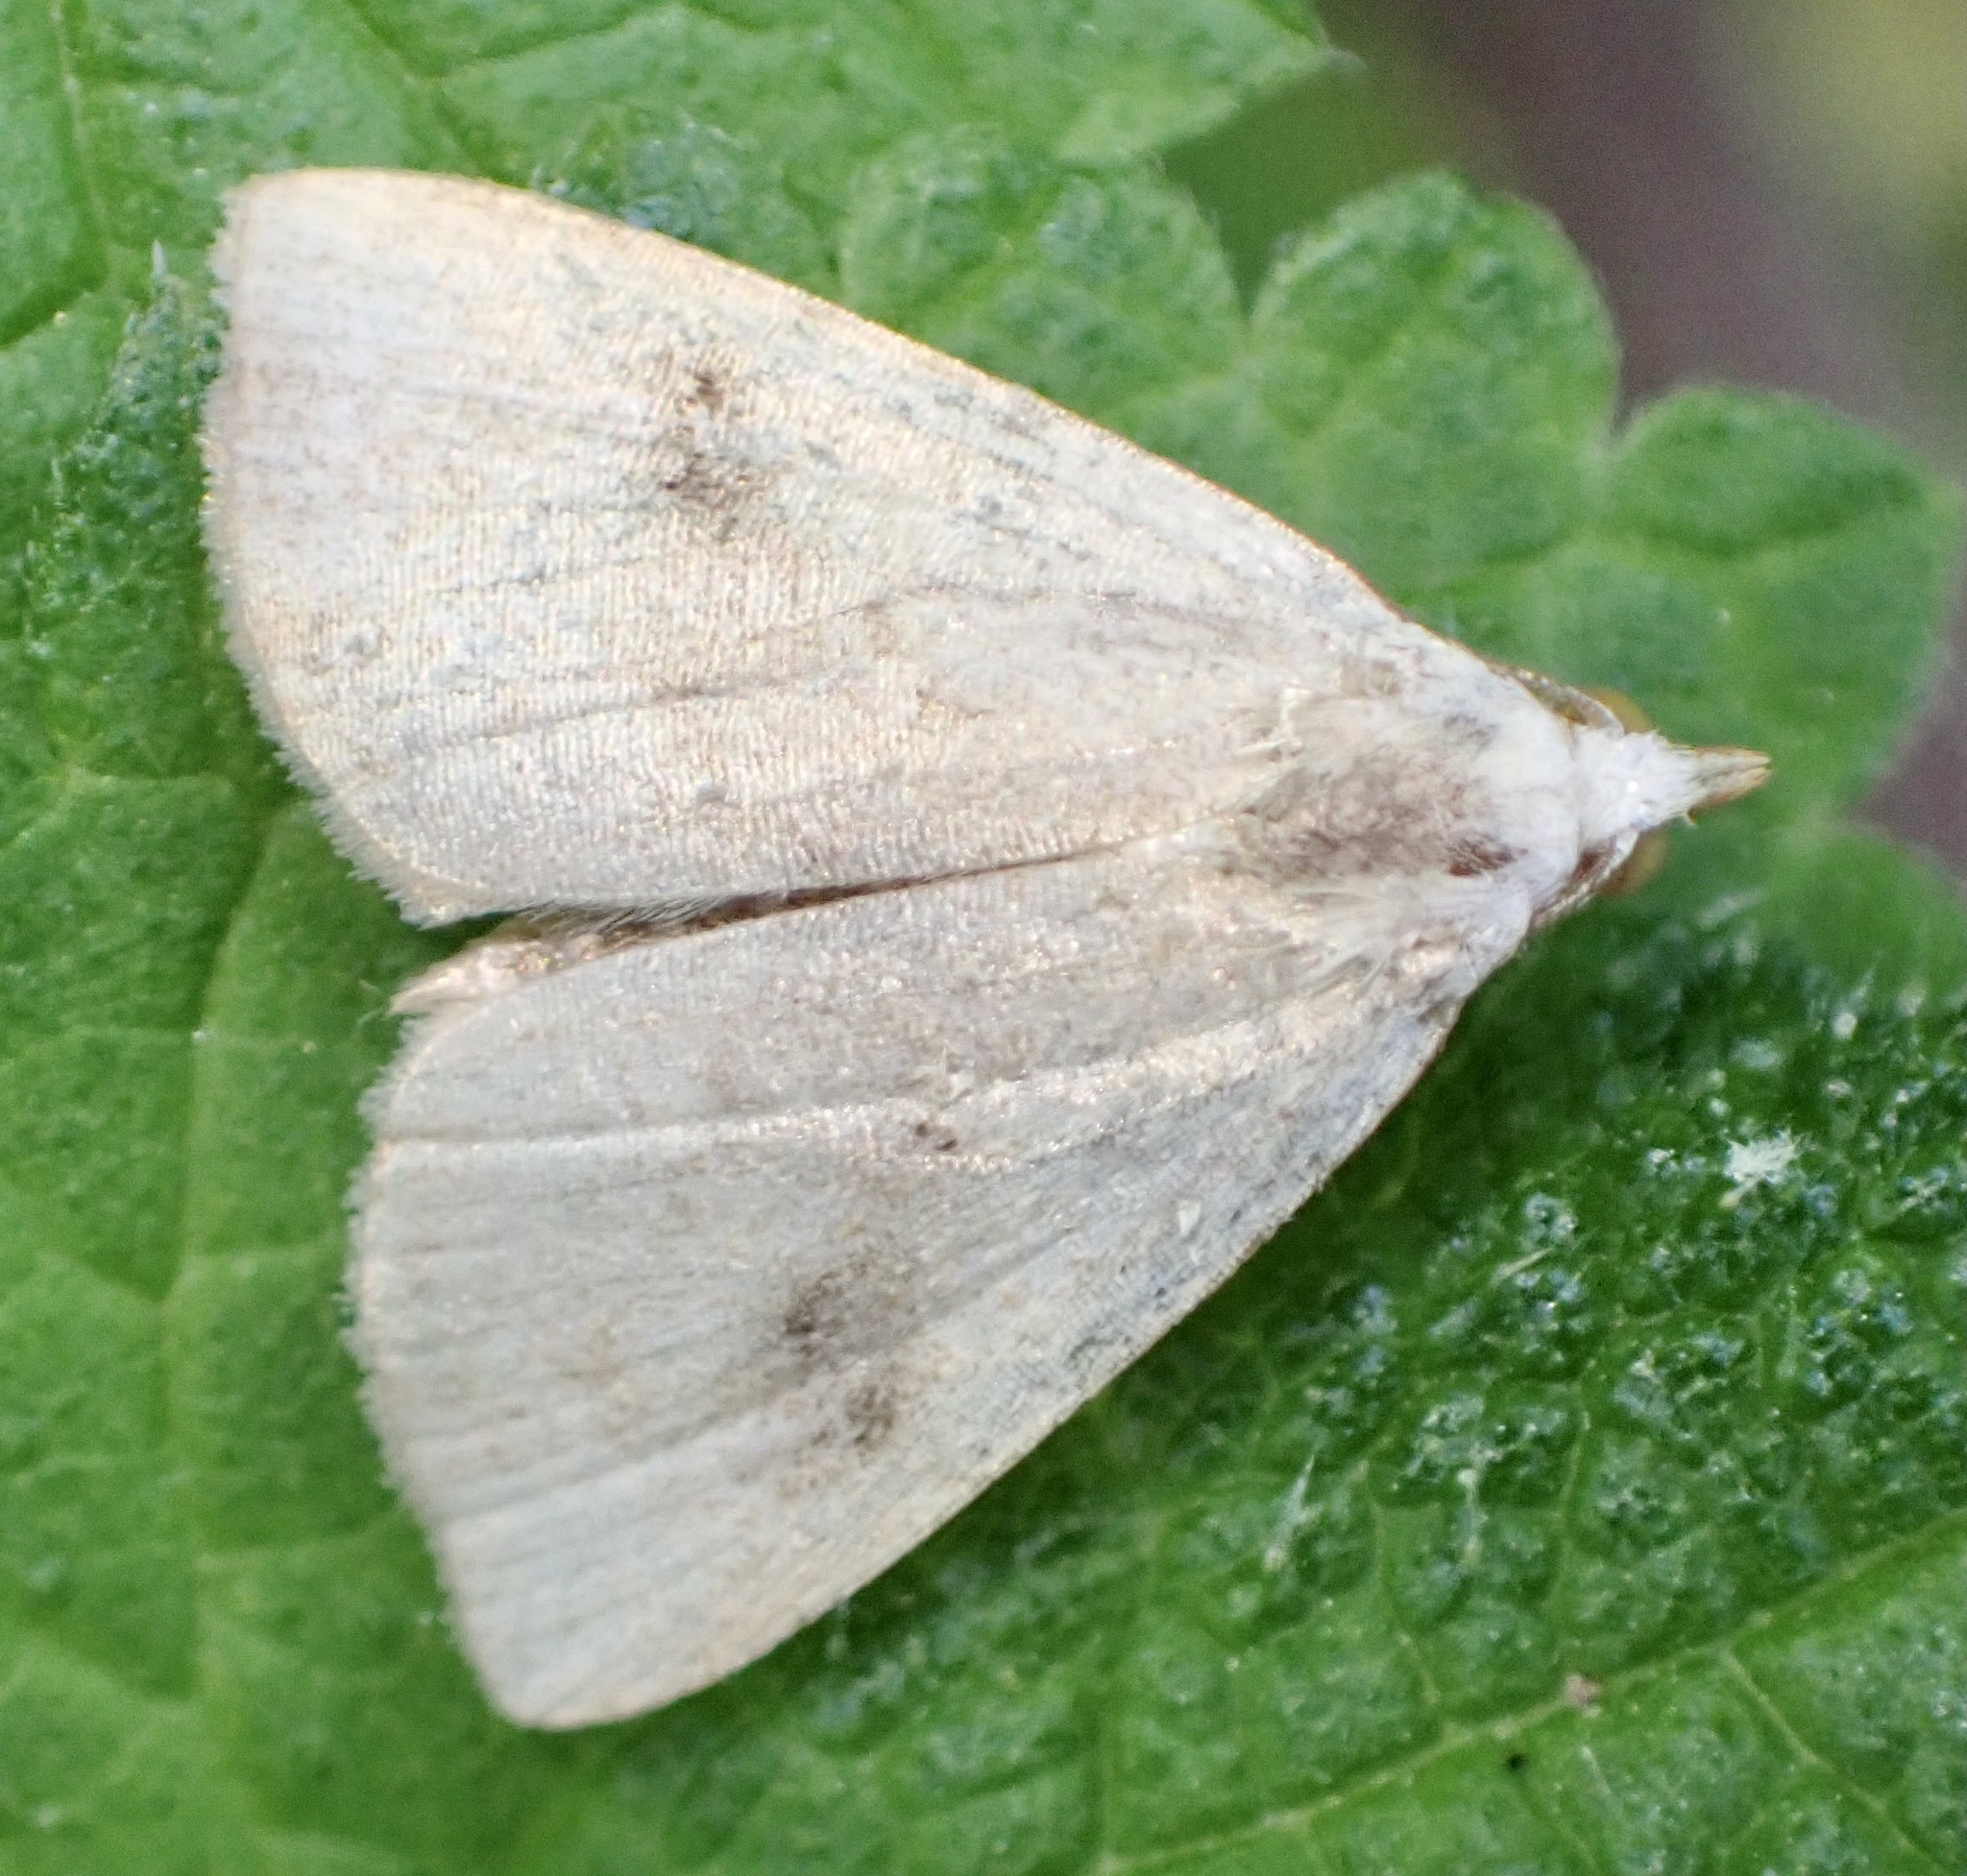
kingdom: Animalia
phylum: Arthropoda
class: Insecta
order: Lepidoptera
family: Erebidae
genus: Rivula
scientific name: Rivula sericealis
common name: Straw dot
